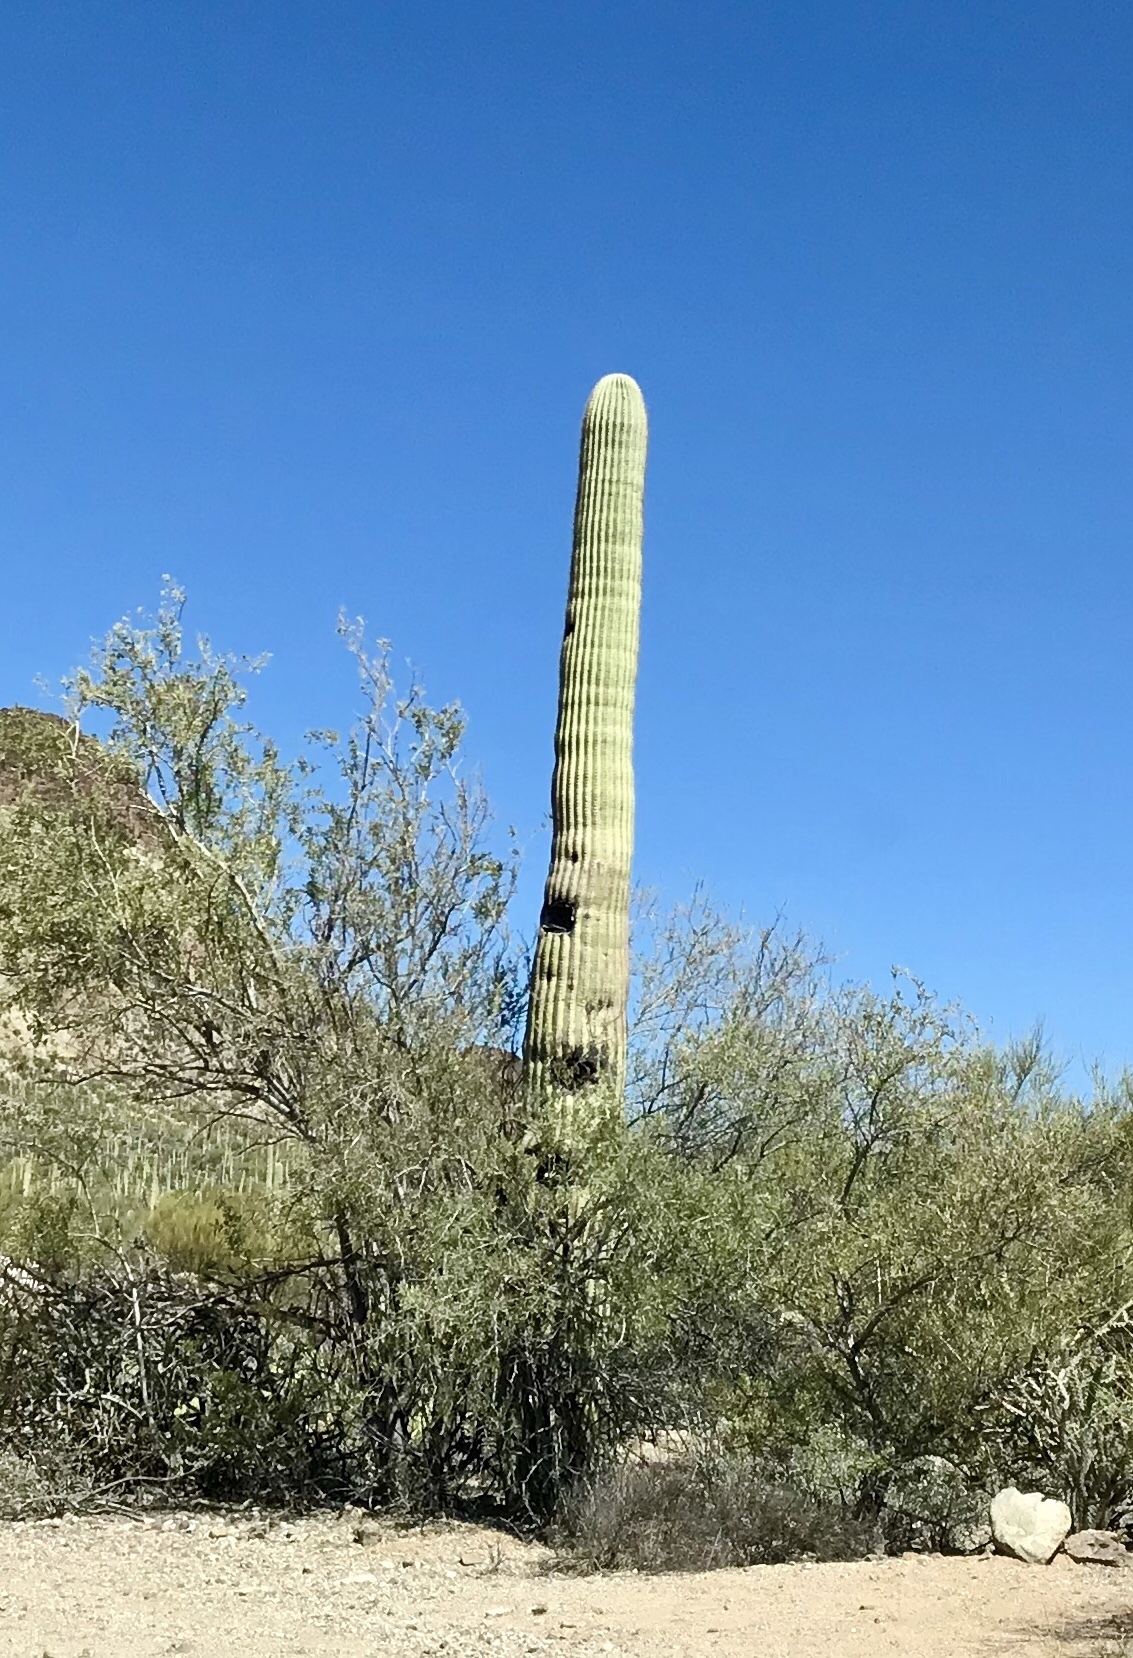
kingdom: Plantae
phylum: Tracheophyta
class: Magnoliopsida
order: Caryophyllales
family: Cactaceae
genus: Carnegiea
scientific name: Carnegiea gigantea
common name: Saguaro
